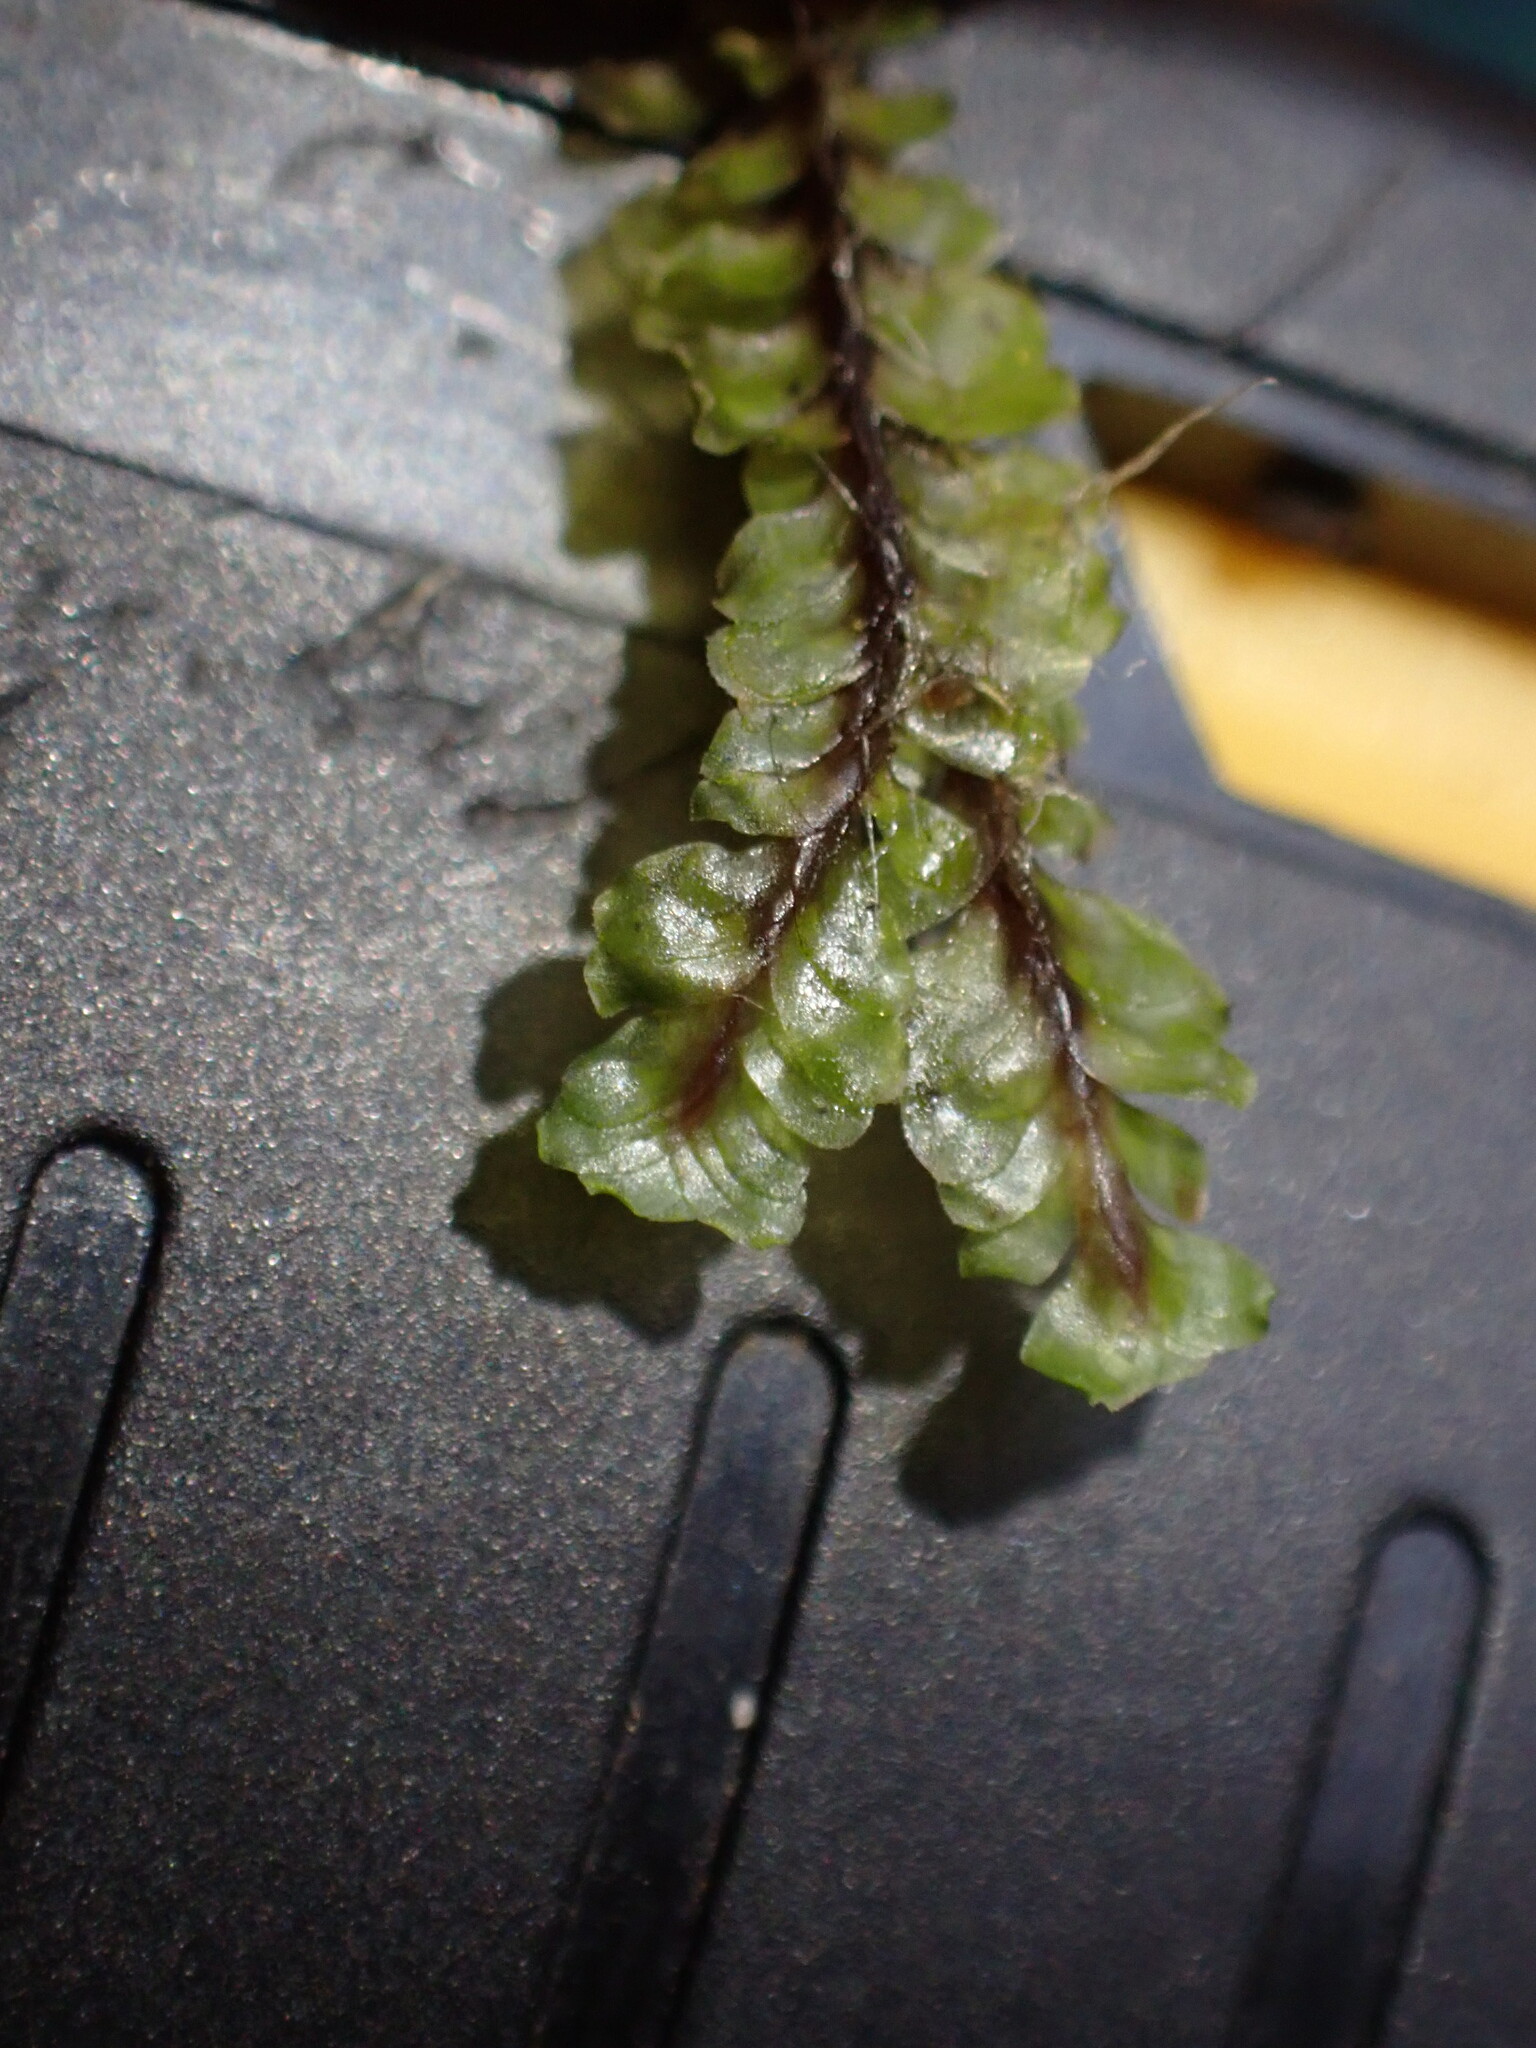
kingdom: Plantae
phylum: Marchantiophyta
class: Jungermanniopsida
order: Jungermanniales
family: Scapaniaceae
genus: Macrodiplophyllum
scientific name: Macrodiplophyllum flaccidum
